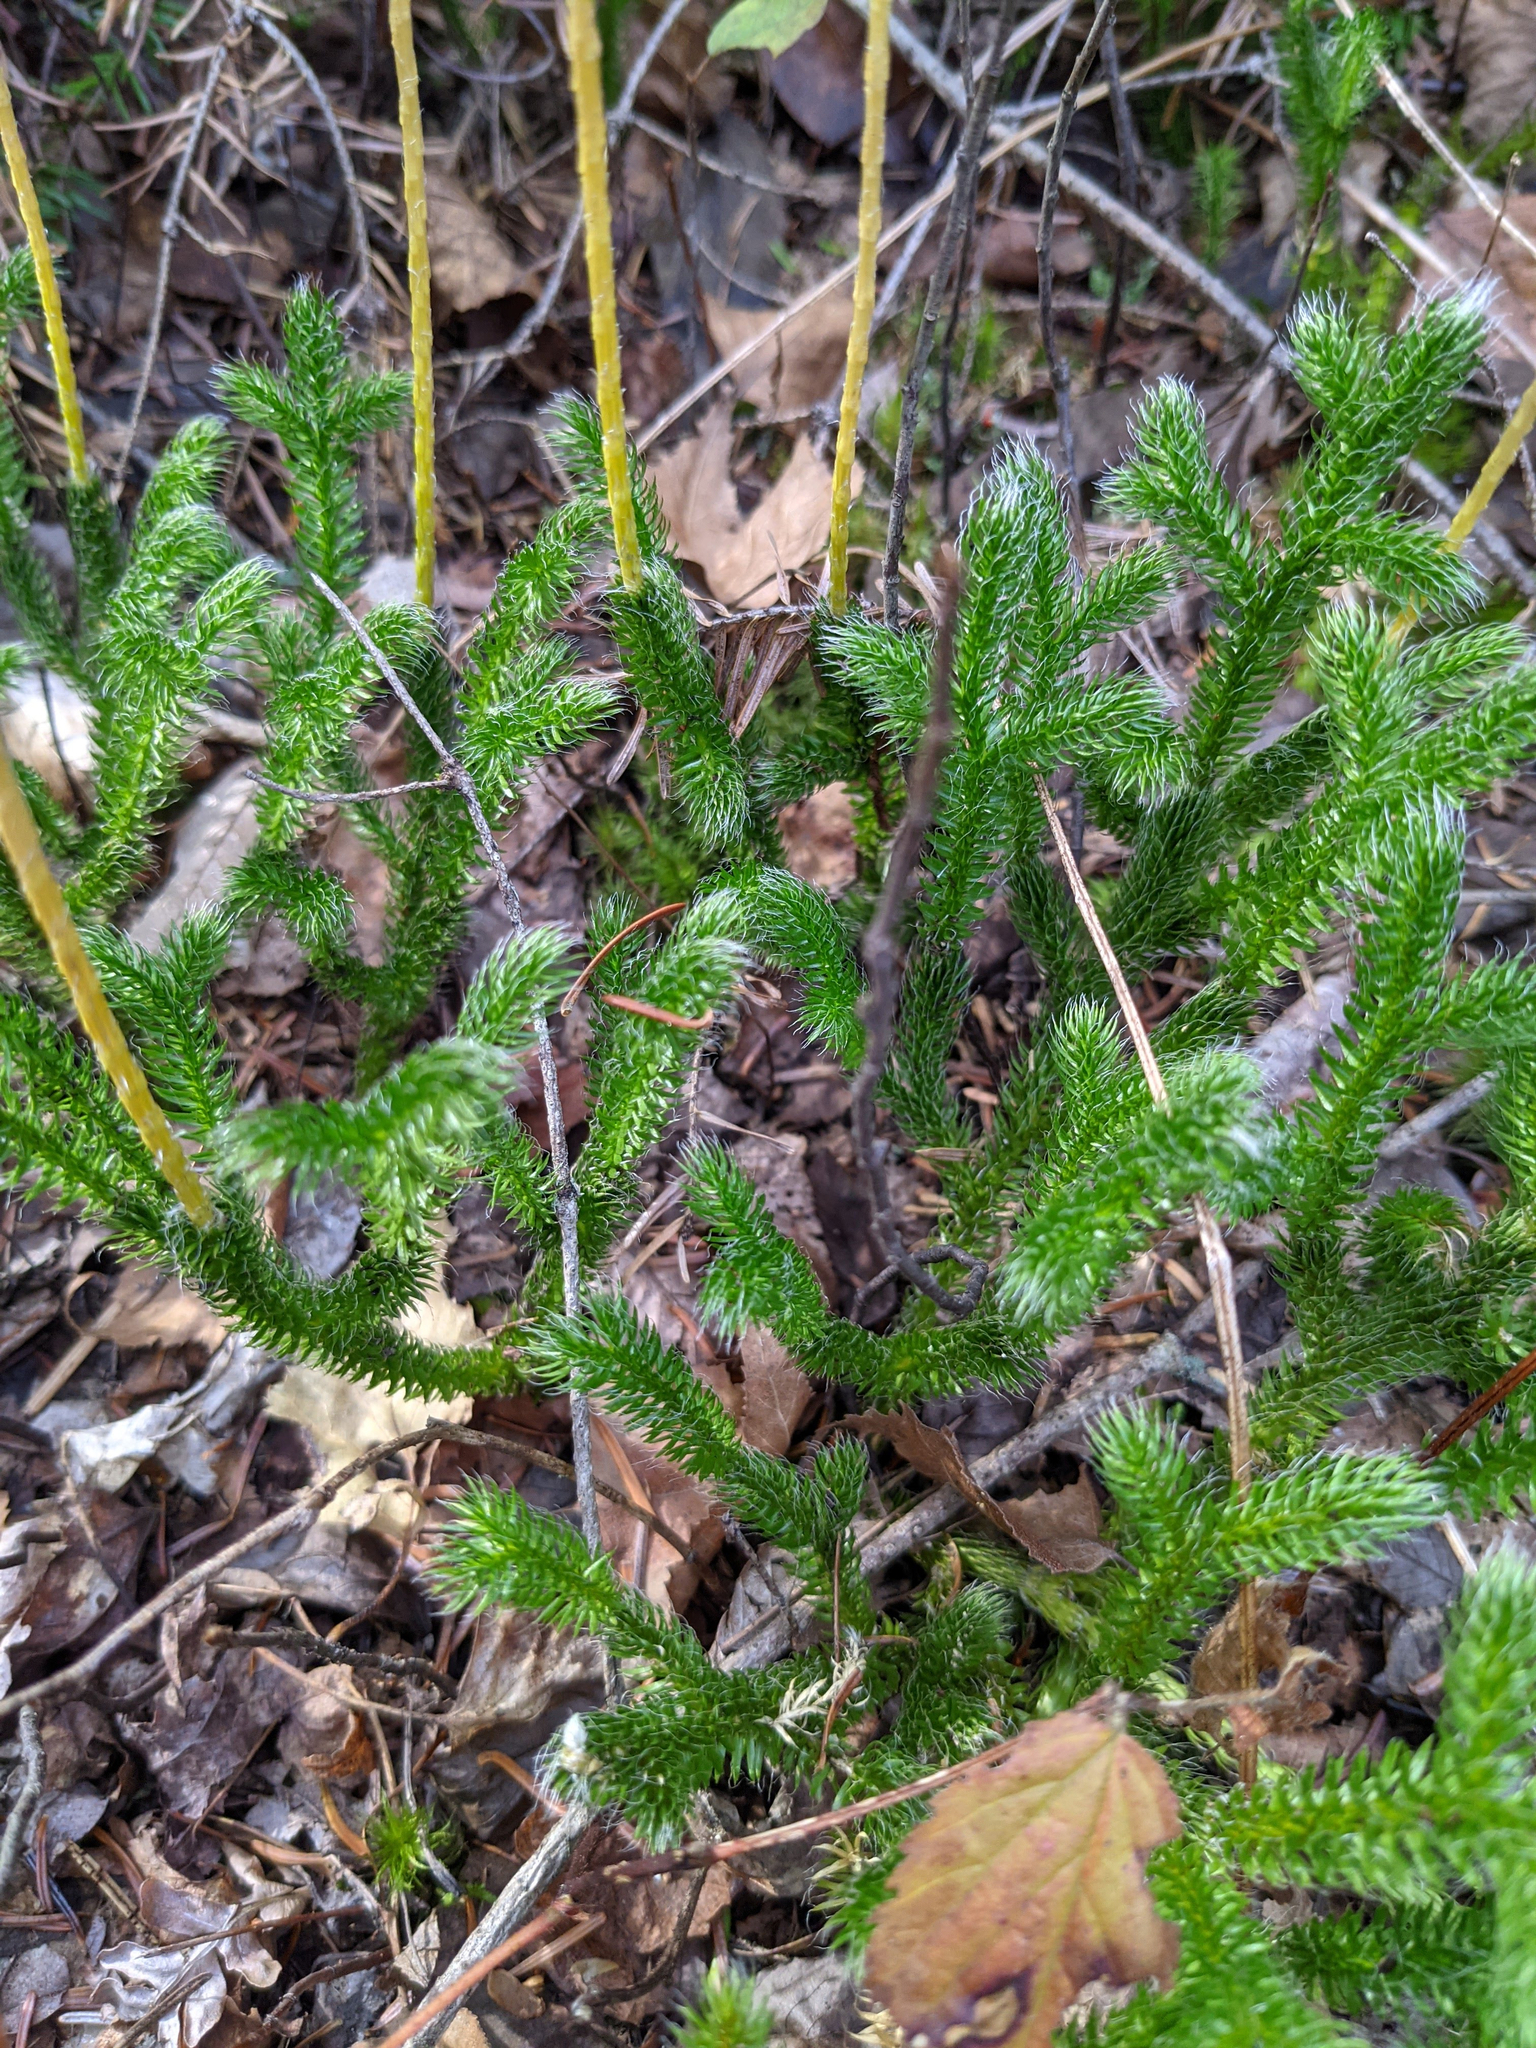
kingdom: Plantae
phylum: Tracheophyta
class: Lycopodiopsida
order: Lycopodiales
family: Lycopodiaceae
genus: Lycopodium
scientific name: Lycopodium clavatum
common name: Stag's-horn clubmoss
